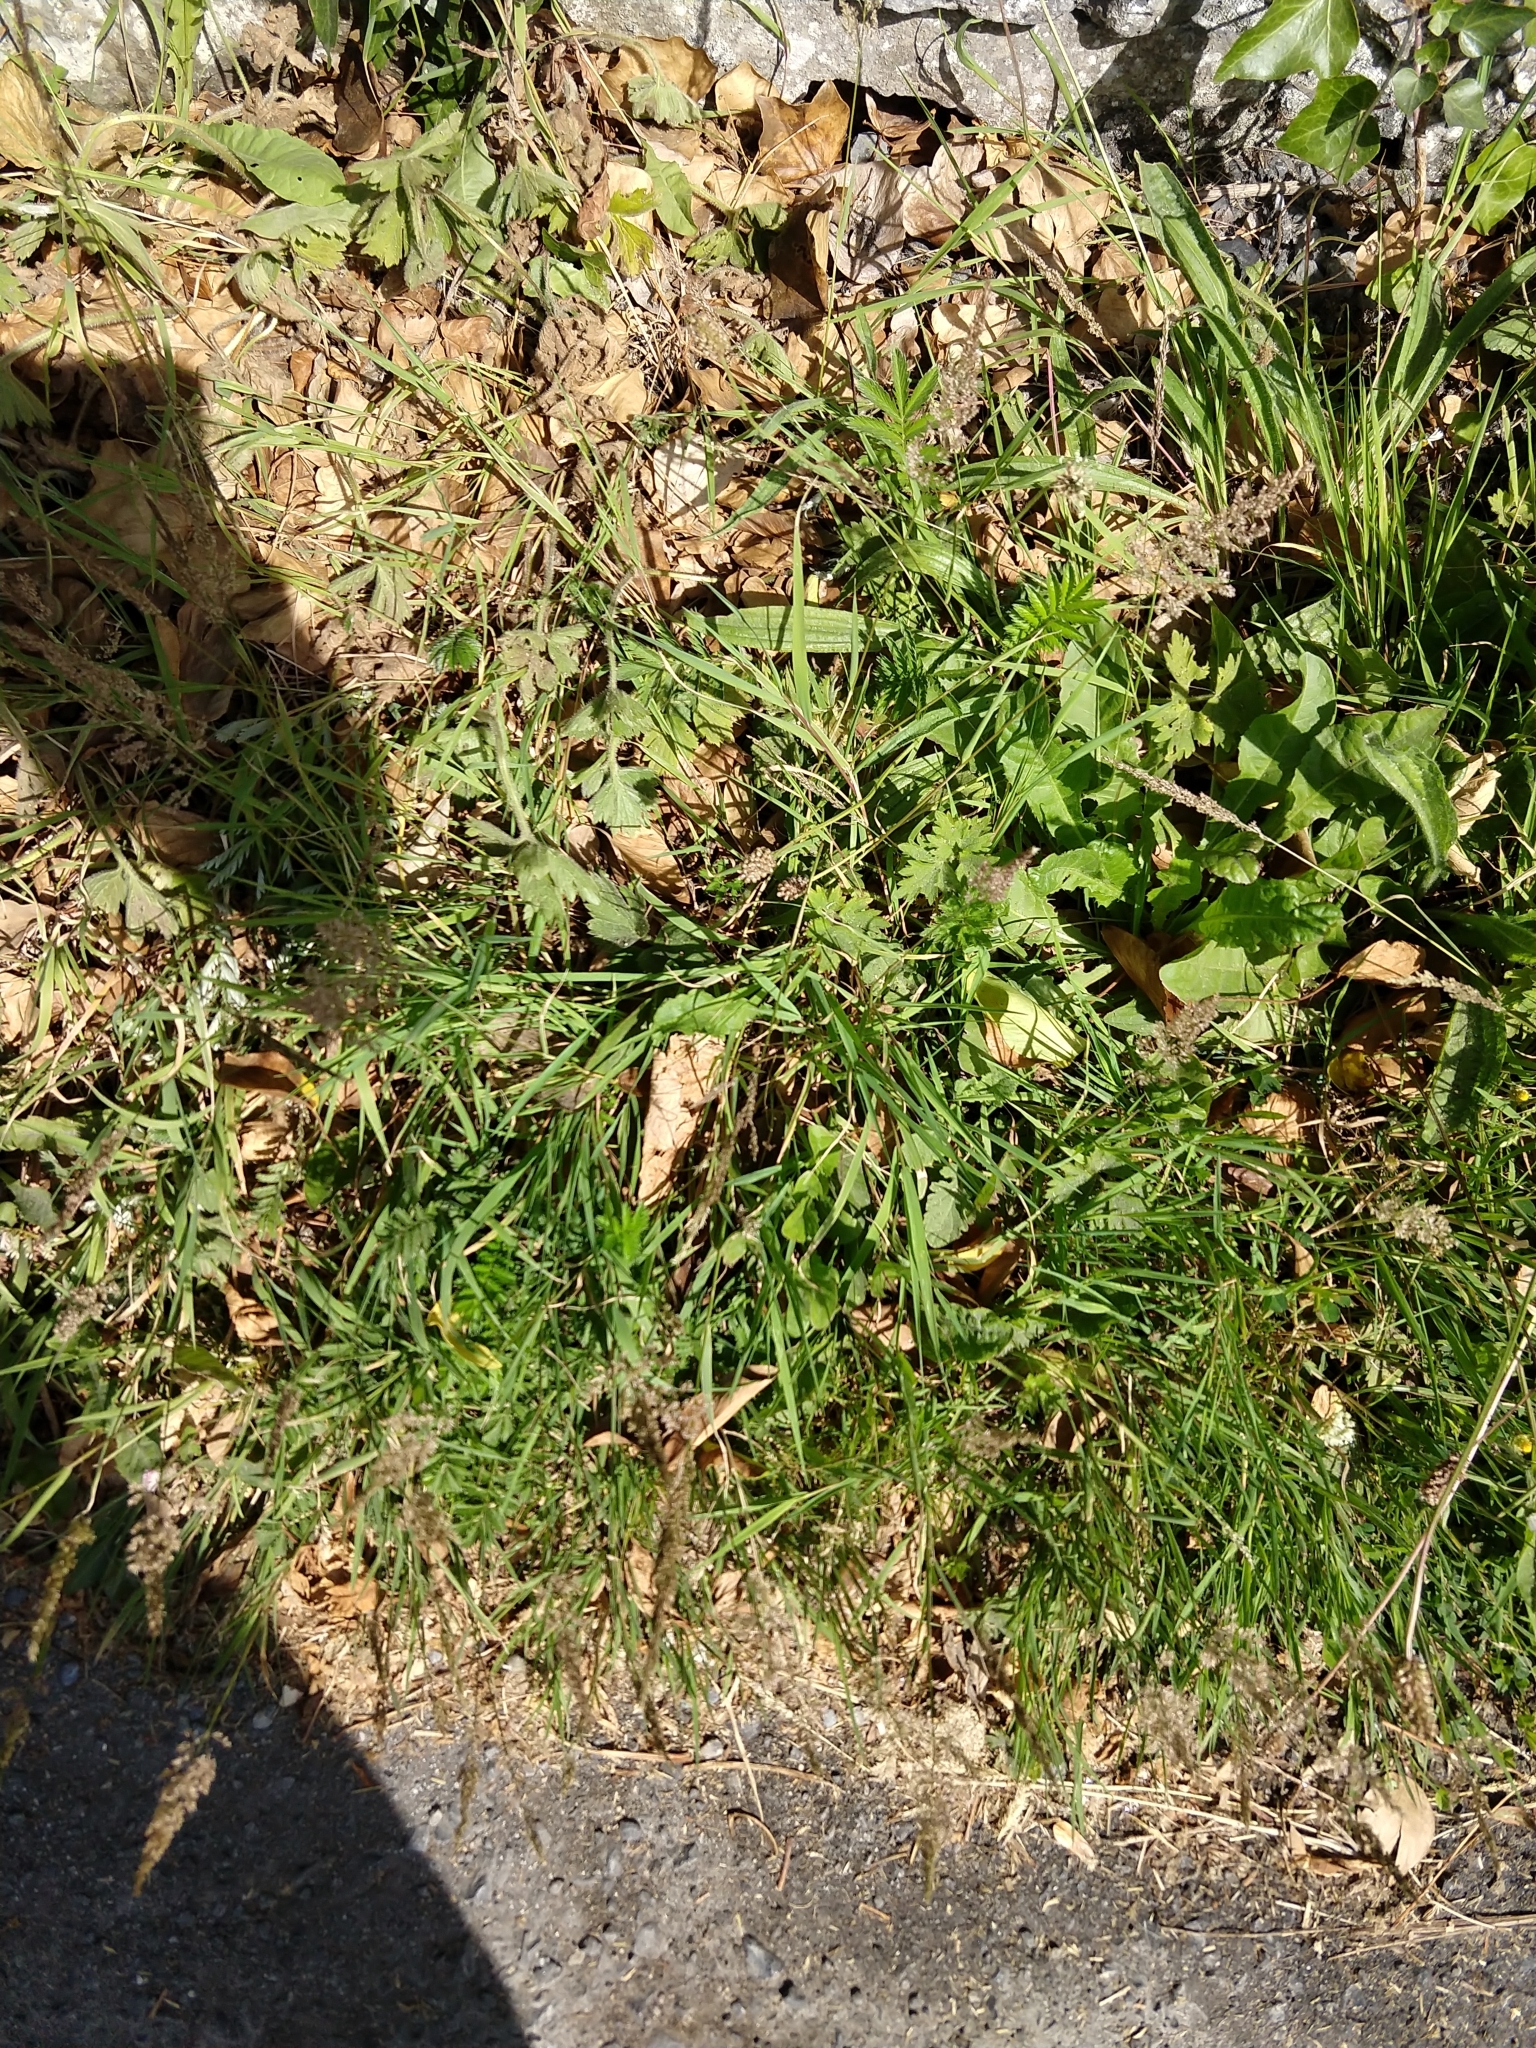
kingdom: Plantae
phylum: Tracheophyta
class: Liliopsida
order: Poales
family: Poaceae
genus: Agrostis
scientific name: Agrostis stolonifera
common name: Creeping bentgrass
